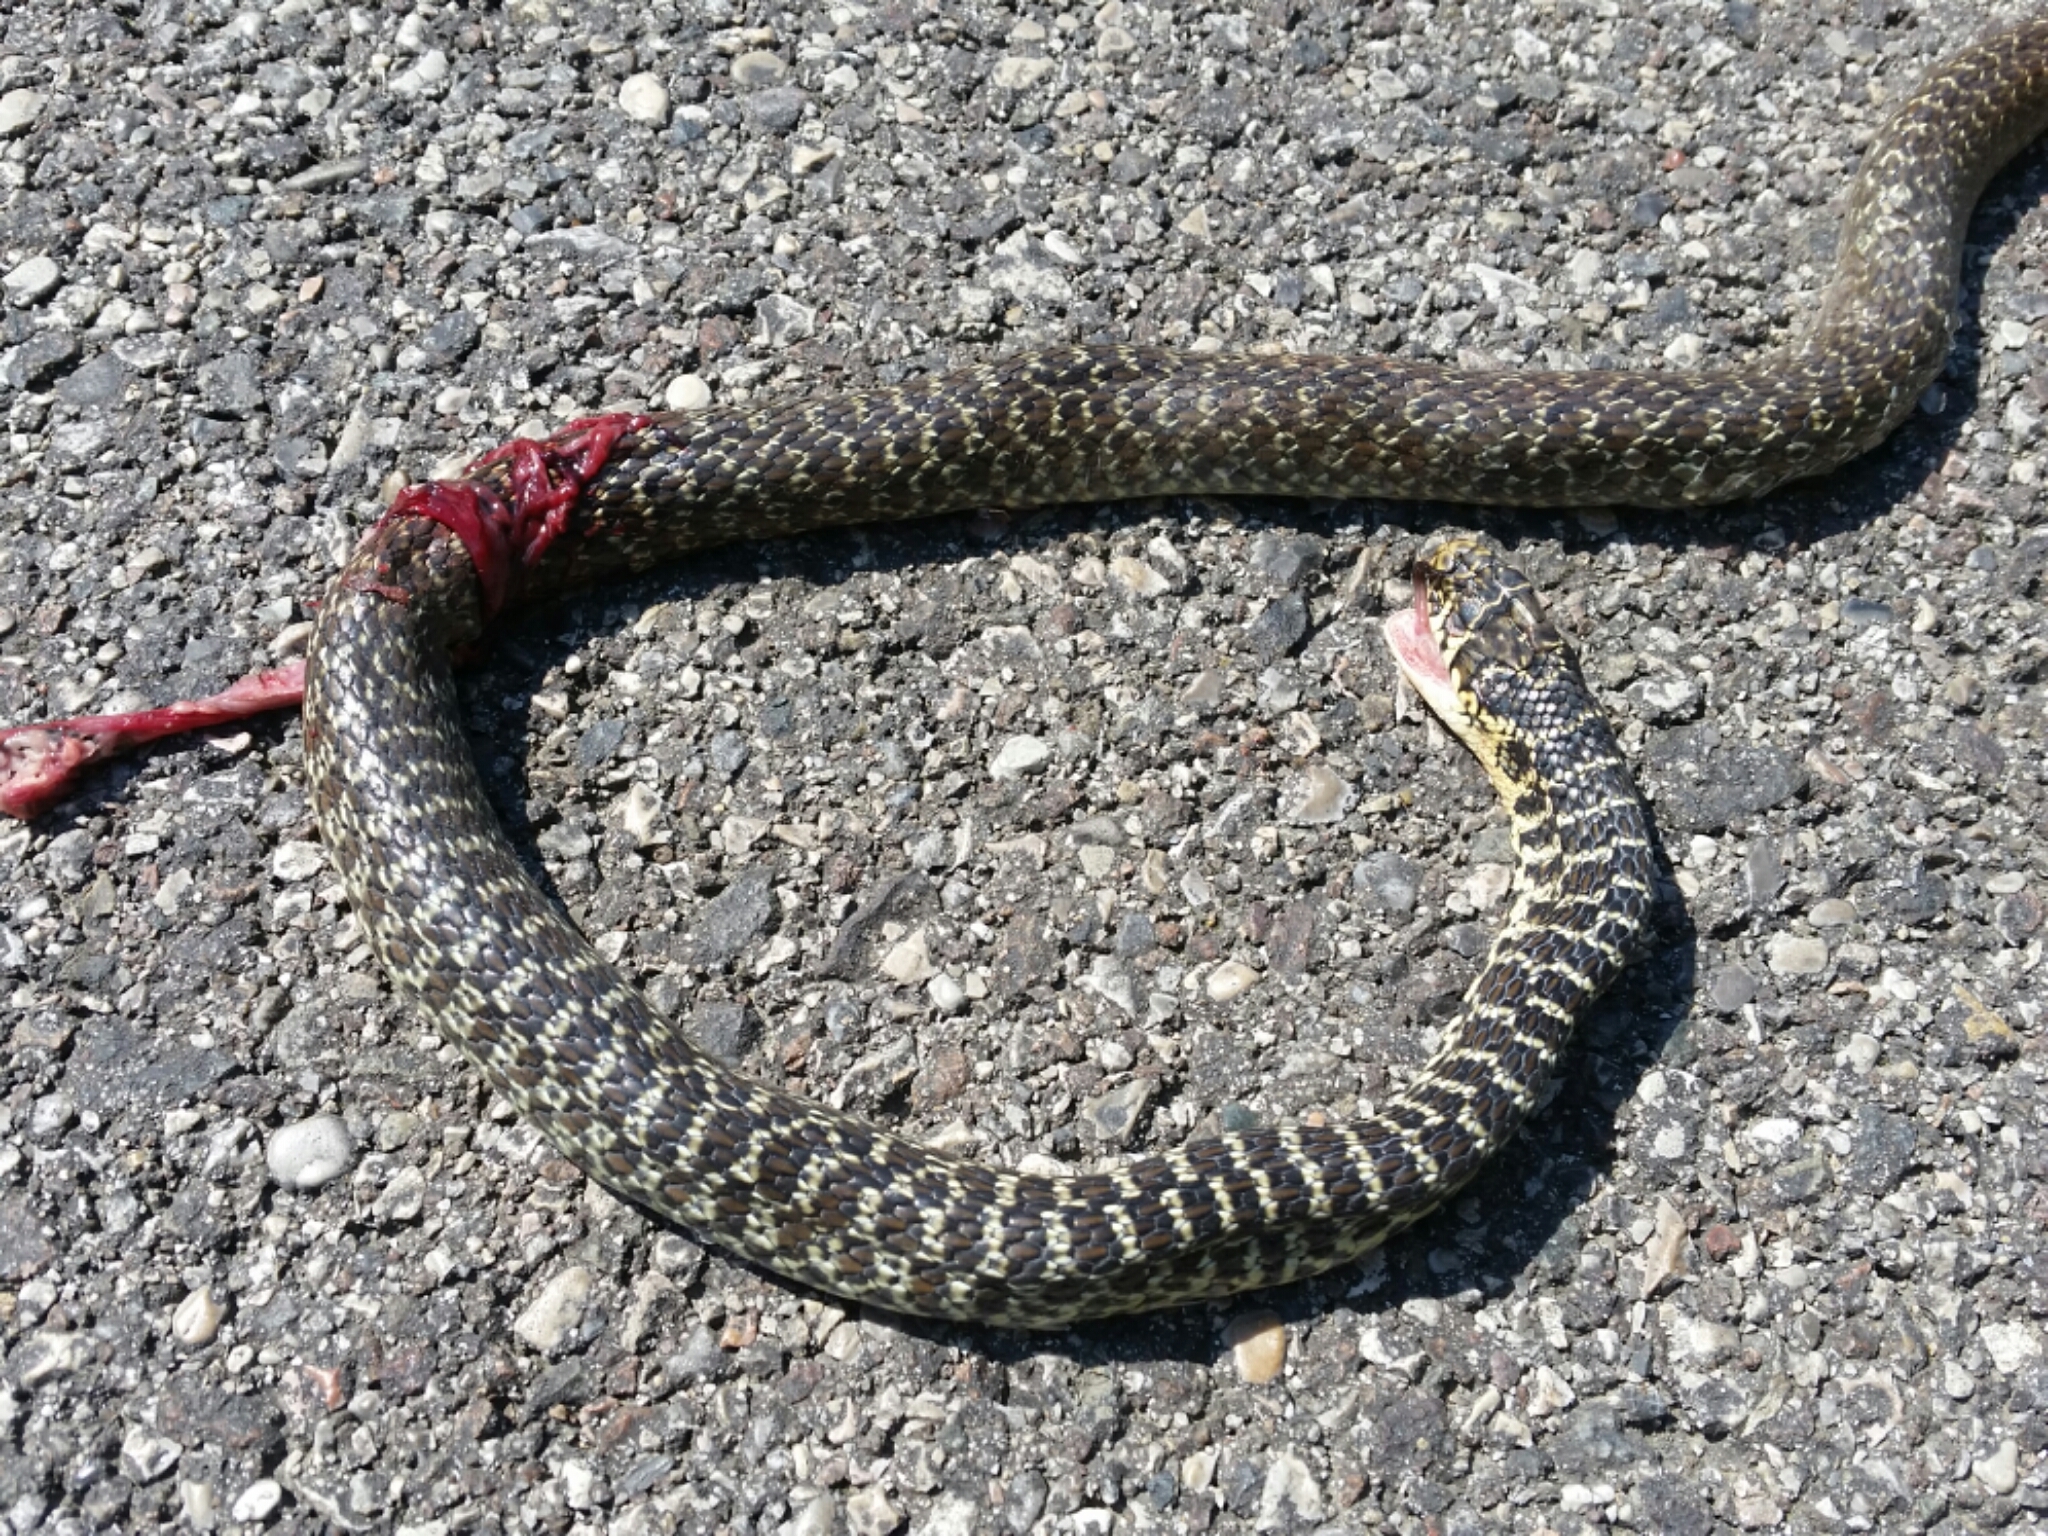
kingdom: Animalia
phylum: Chordata
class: Squamata
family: Colubridae
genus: Hierophis
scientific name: Hierophis viridiflavus
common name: Green whip snake
